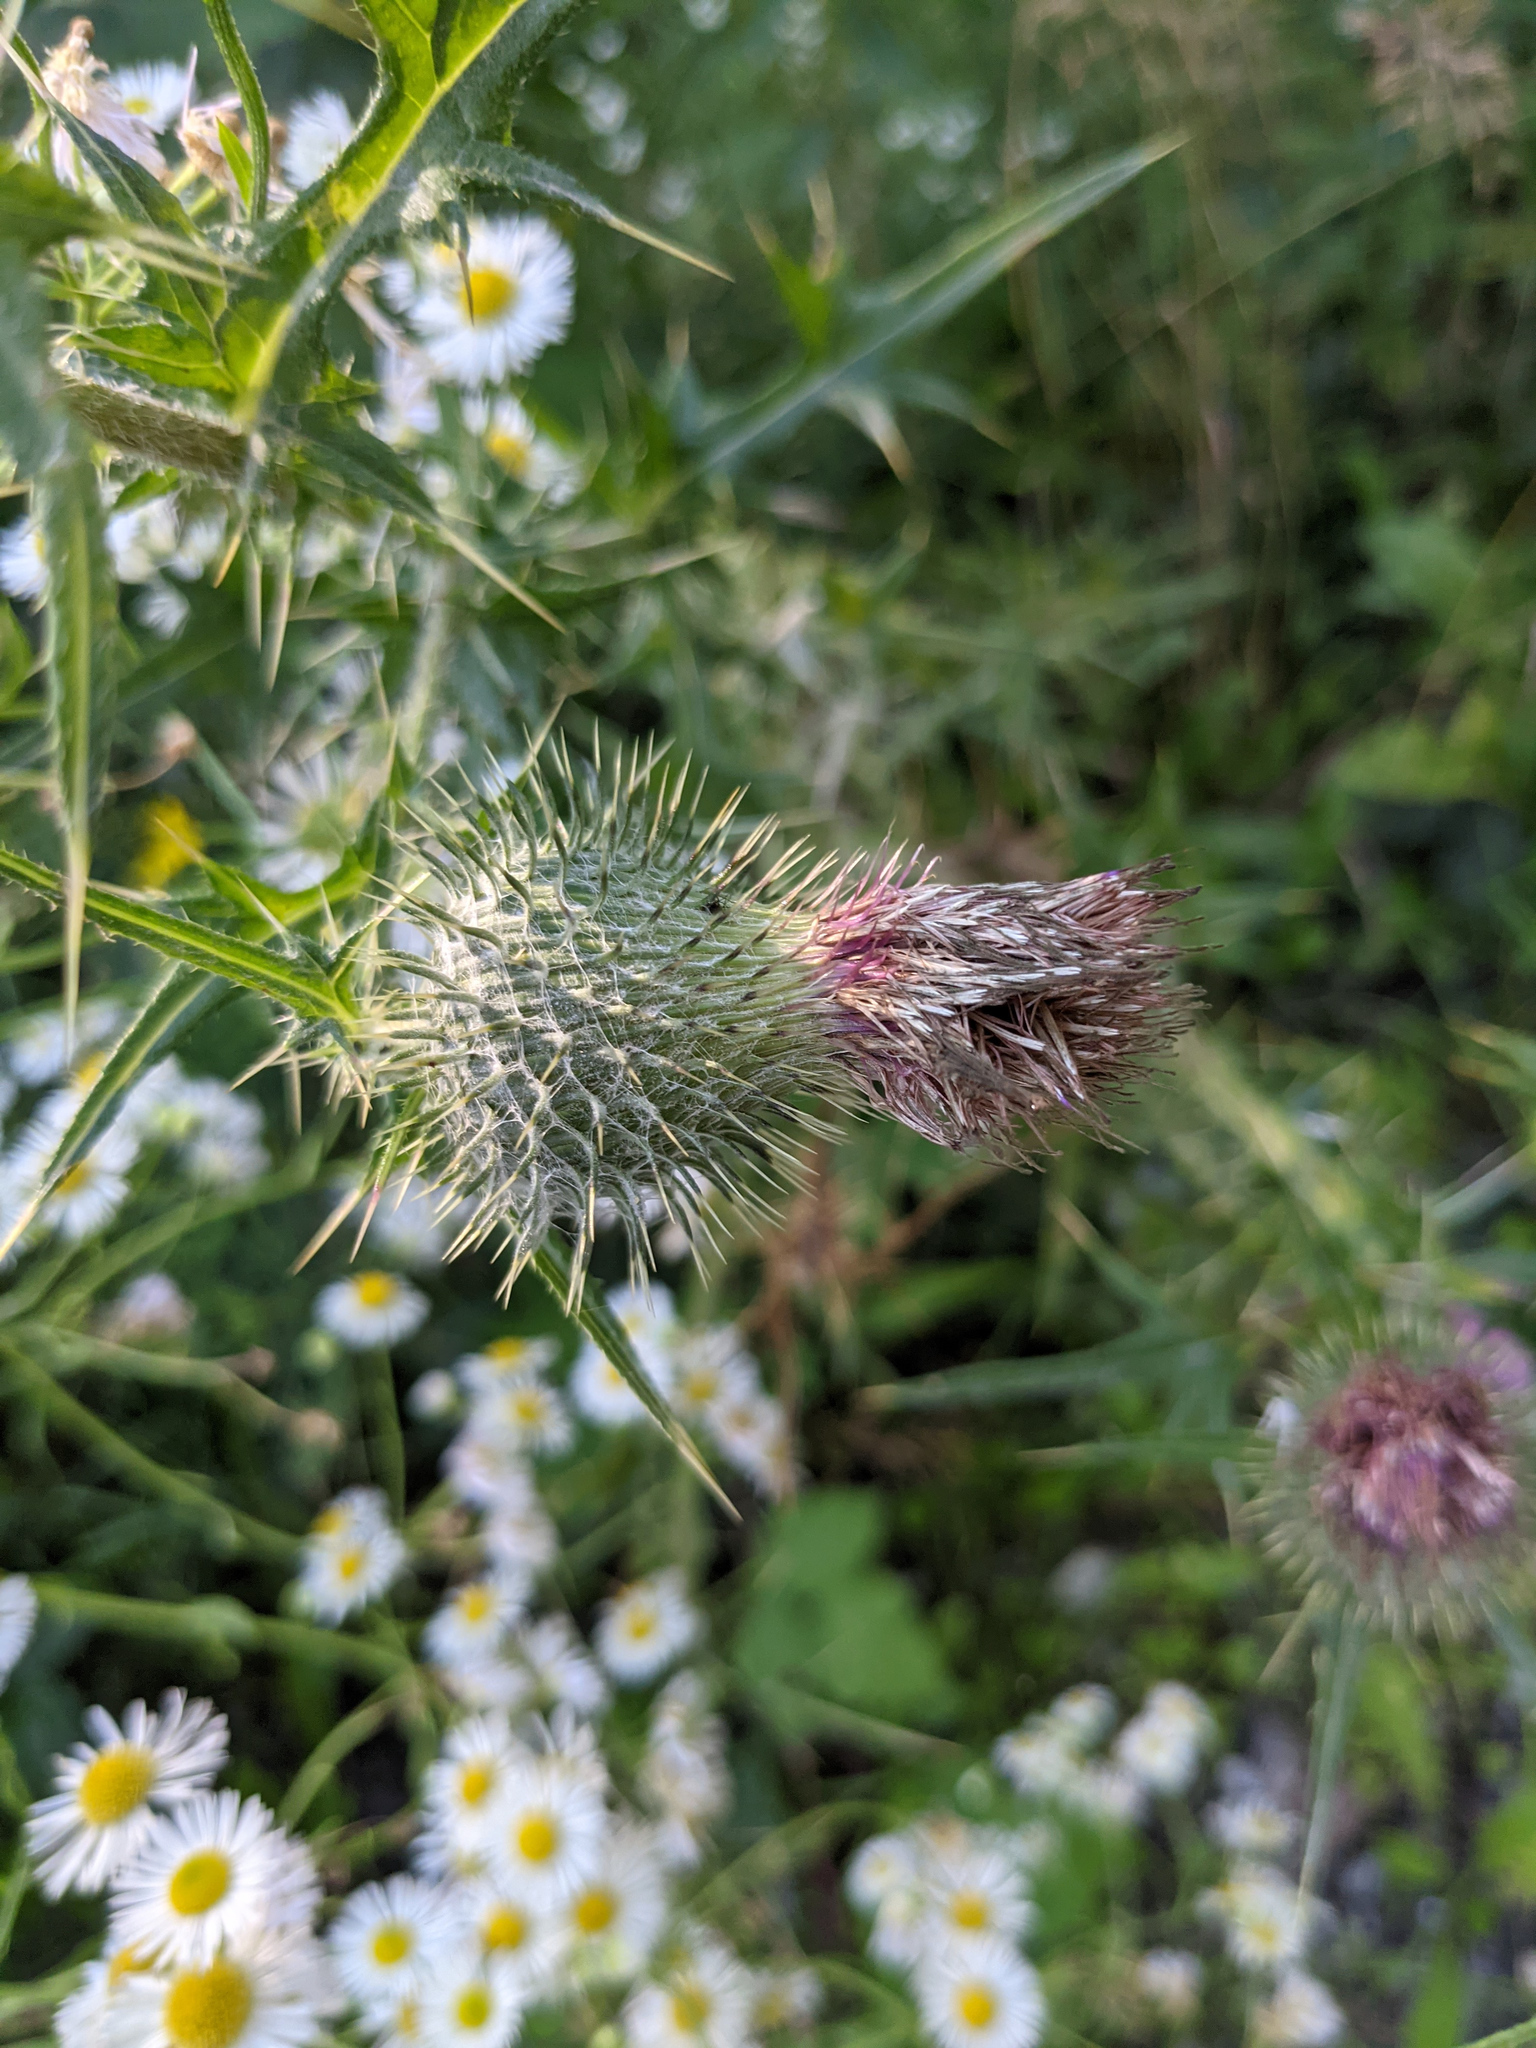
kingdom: Plantae
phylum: Tracheophyta
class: Magnoliopsida
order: Asterales
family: Asteraceae
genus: Cirsium
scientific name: Cirsium vulgare
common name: Bull thistle
